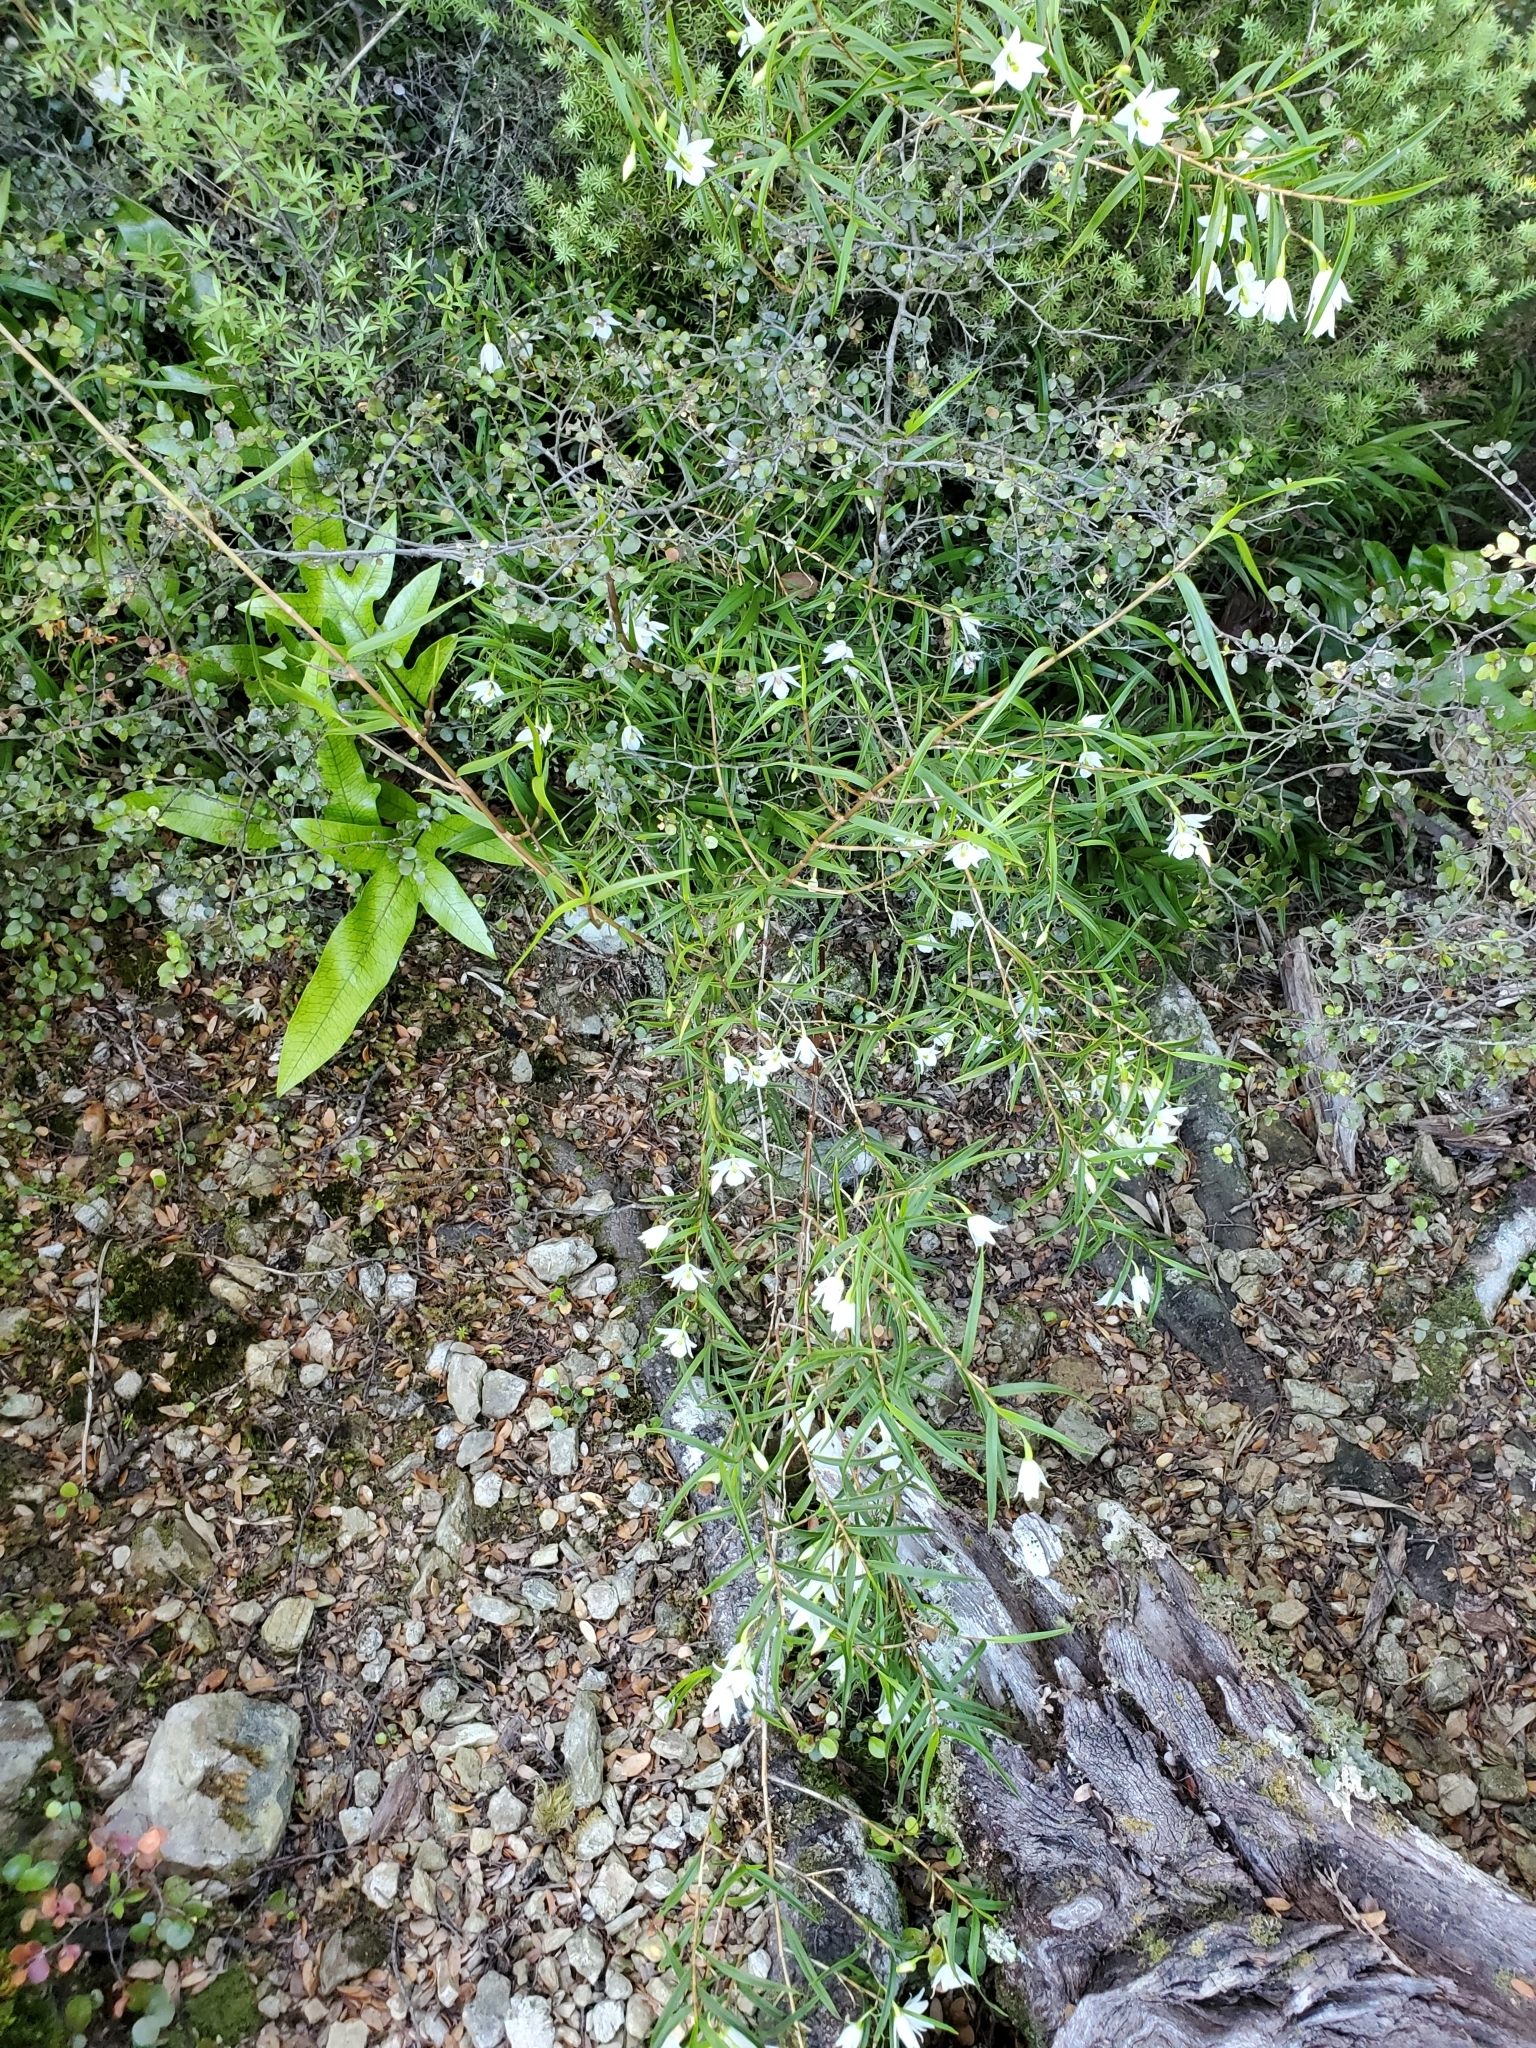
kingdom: Plantae
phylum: Tracheophyta
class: Liliopsida
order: Asparagales
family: Orchidaceae
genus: Dendrobium
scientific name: Dendrobium cunninghamii
